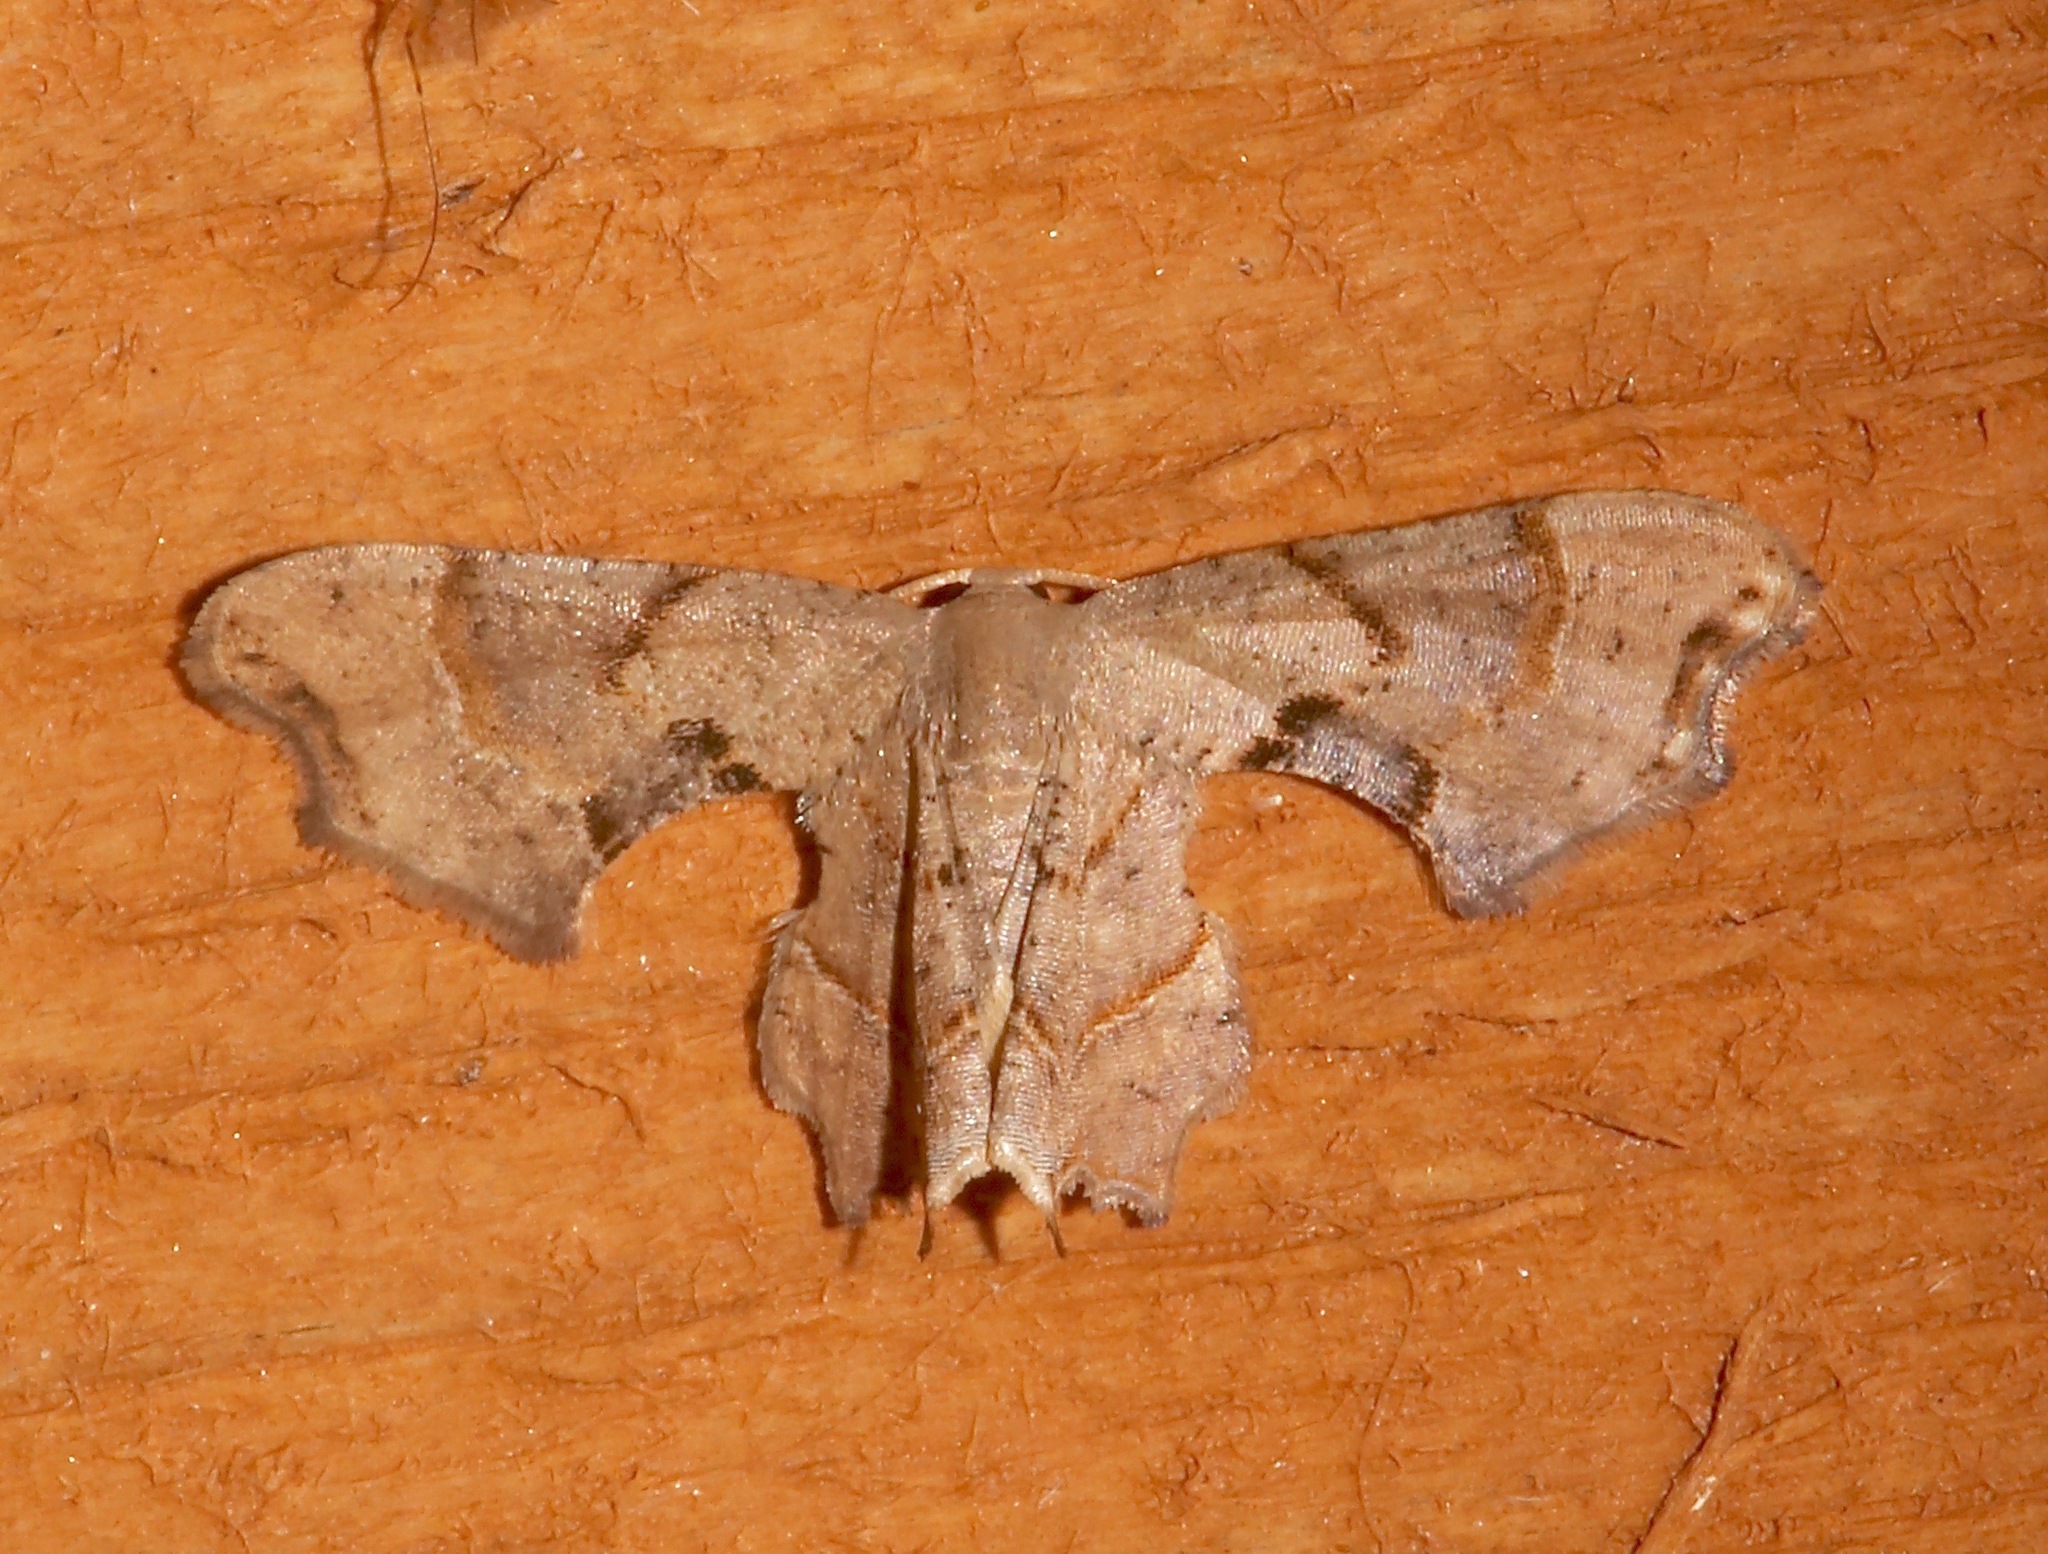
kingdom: Animalia
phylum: Arthropoda
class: Insecta
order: Lepidoptera
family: Uraniidae
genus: Epiplema
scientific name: Epiplema Calledapteryx dryopterata
